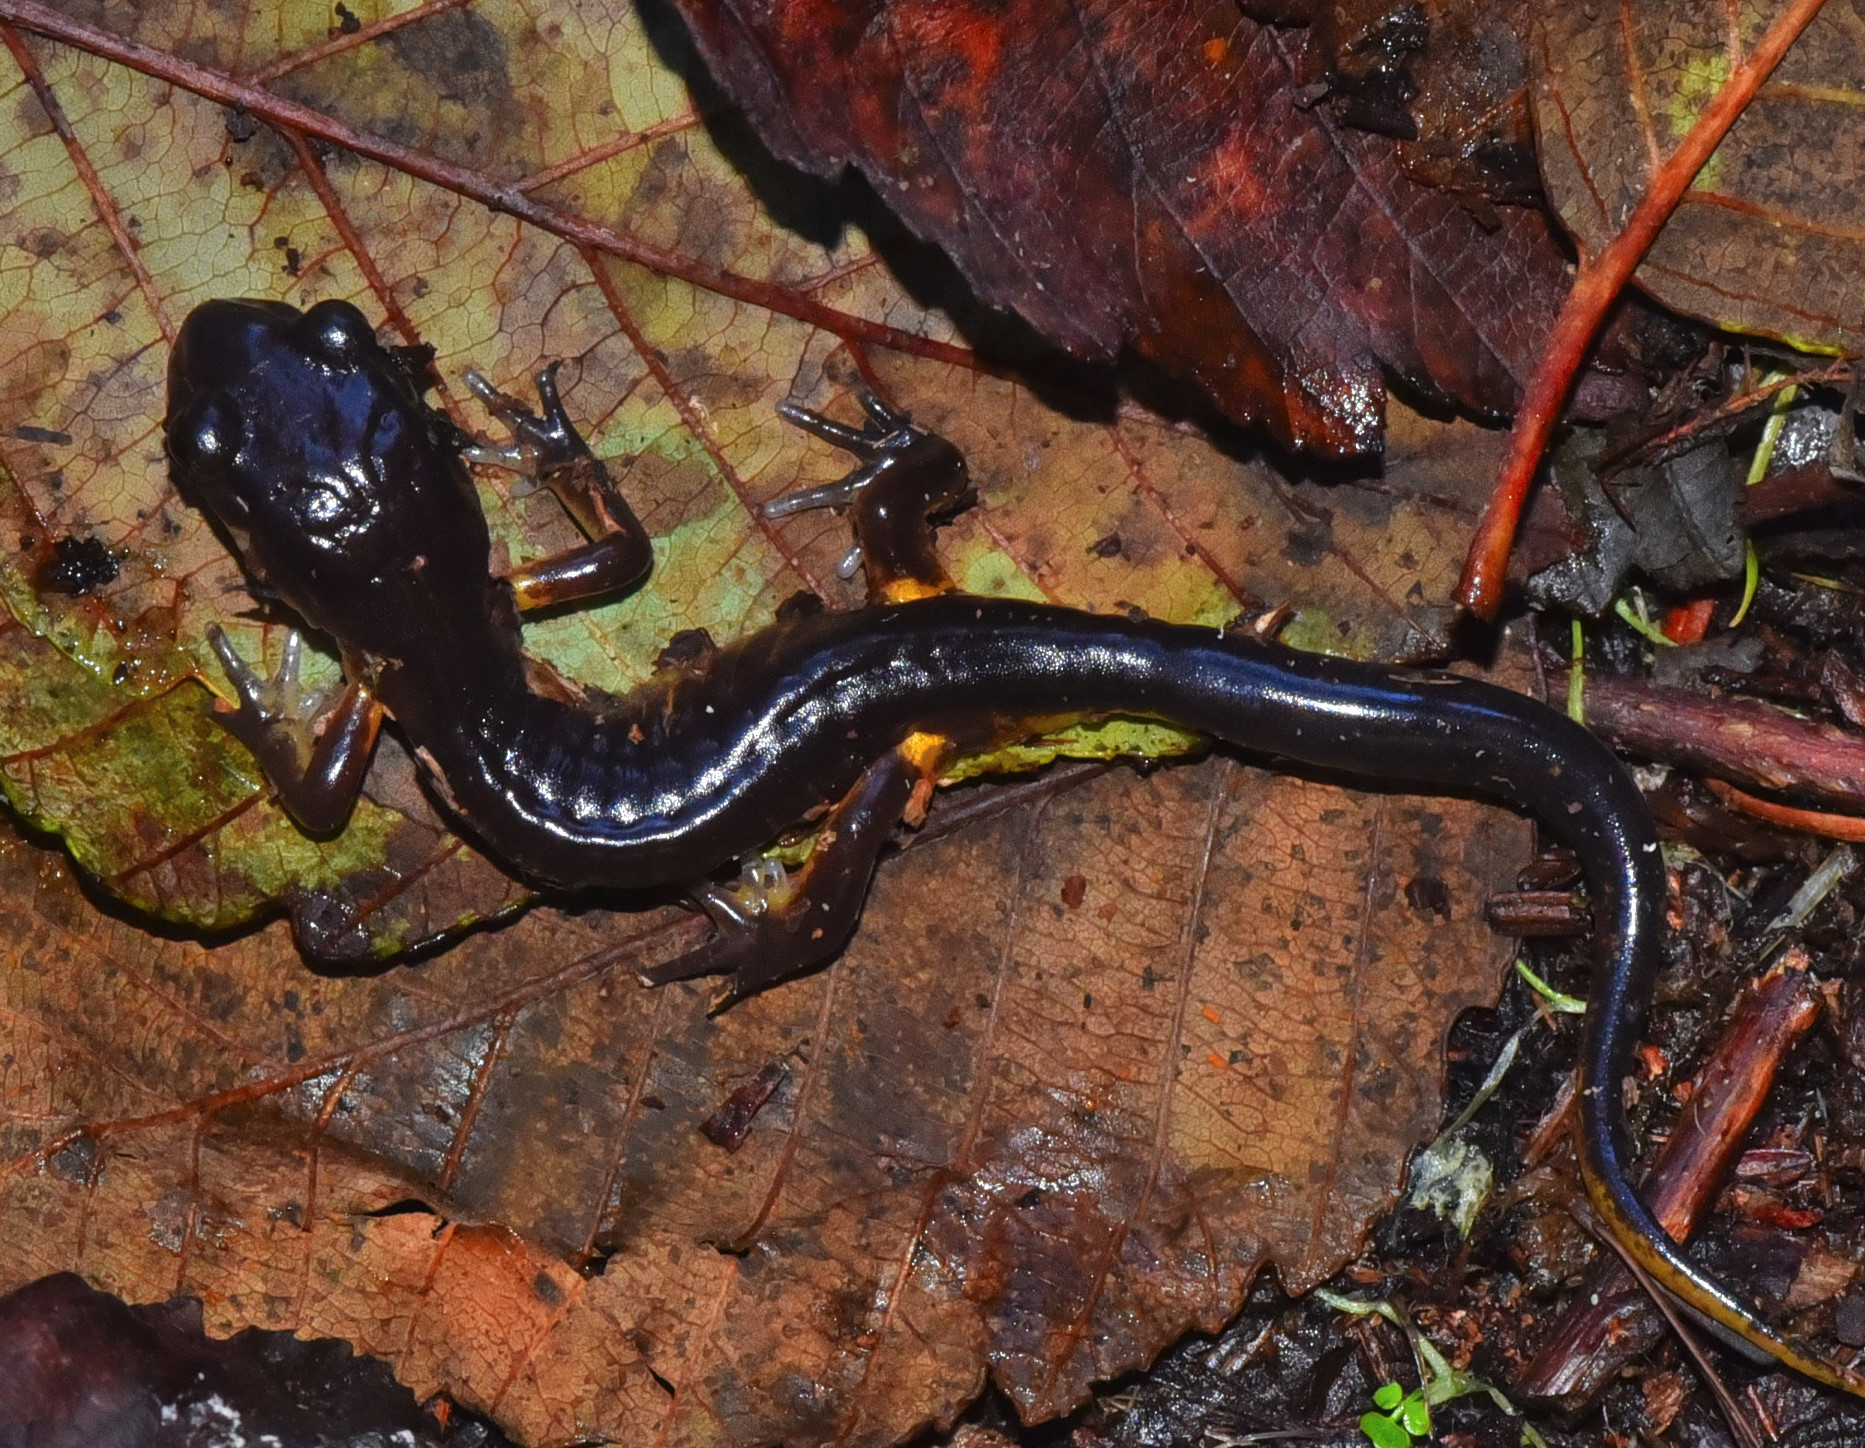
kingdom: Animalia
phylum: Chordata
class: Amphibia
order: Caudata
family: Plethodontidae
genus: Ensatina
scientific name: Ensatina eschscholtzii
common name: Ensatina
